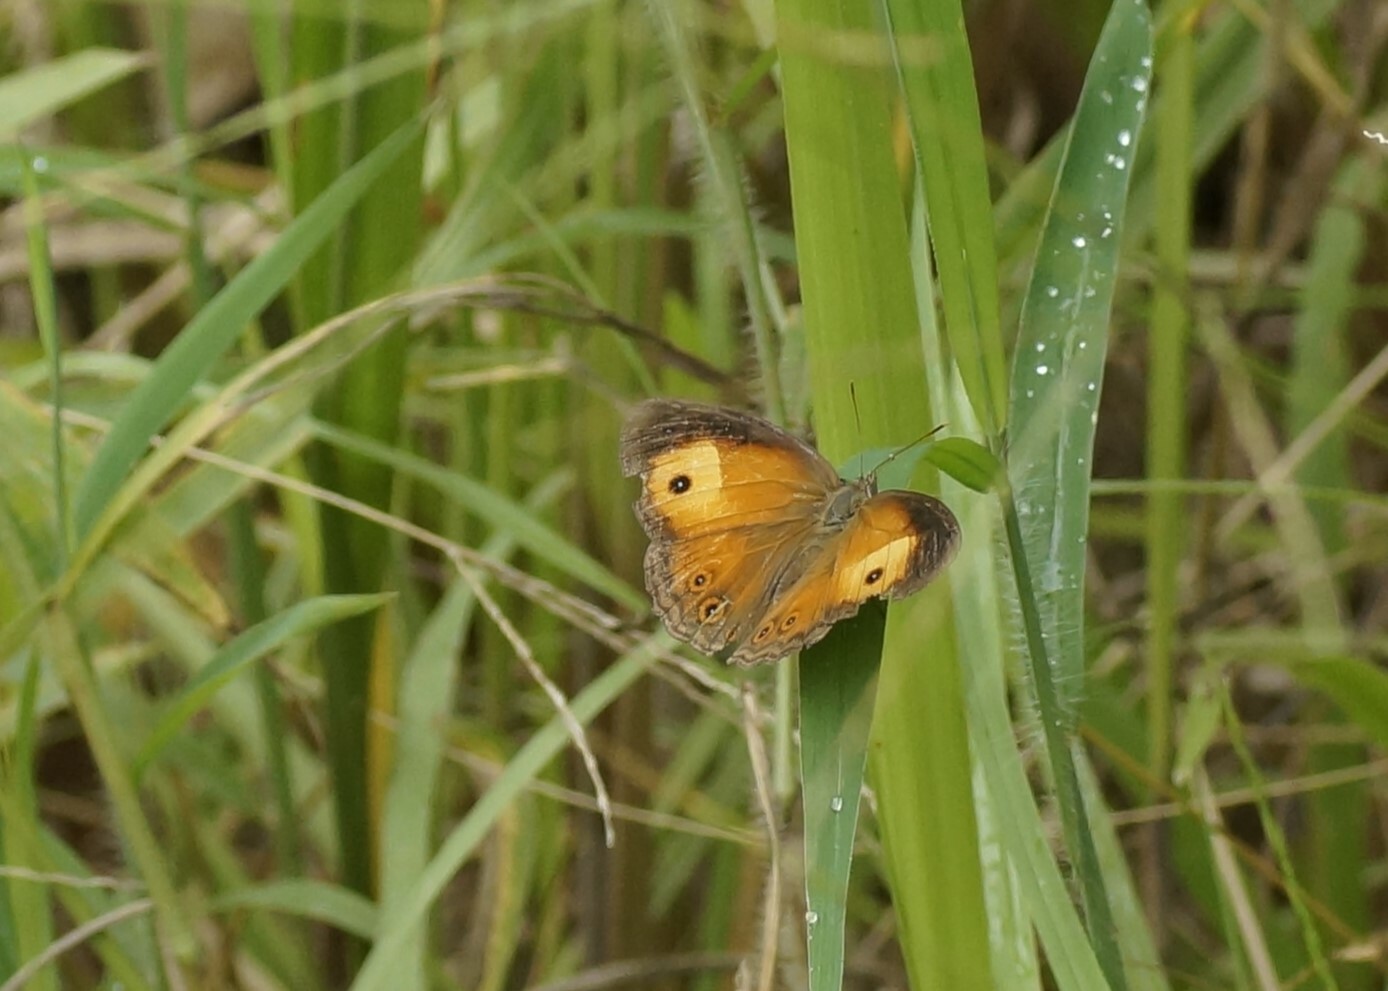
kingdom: Animalia
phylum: Arthropoda
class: Insecta
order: Lepidoptera
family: Nymphalidae
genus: Mycalesis
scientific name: Mycalesis terminus
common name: Orange bushbrown
